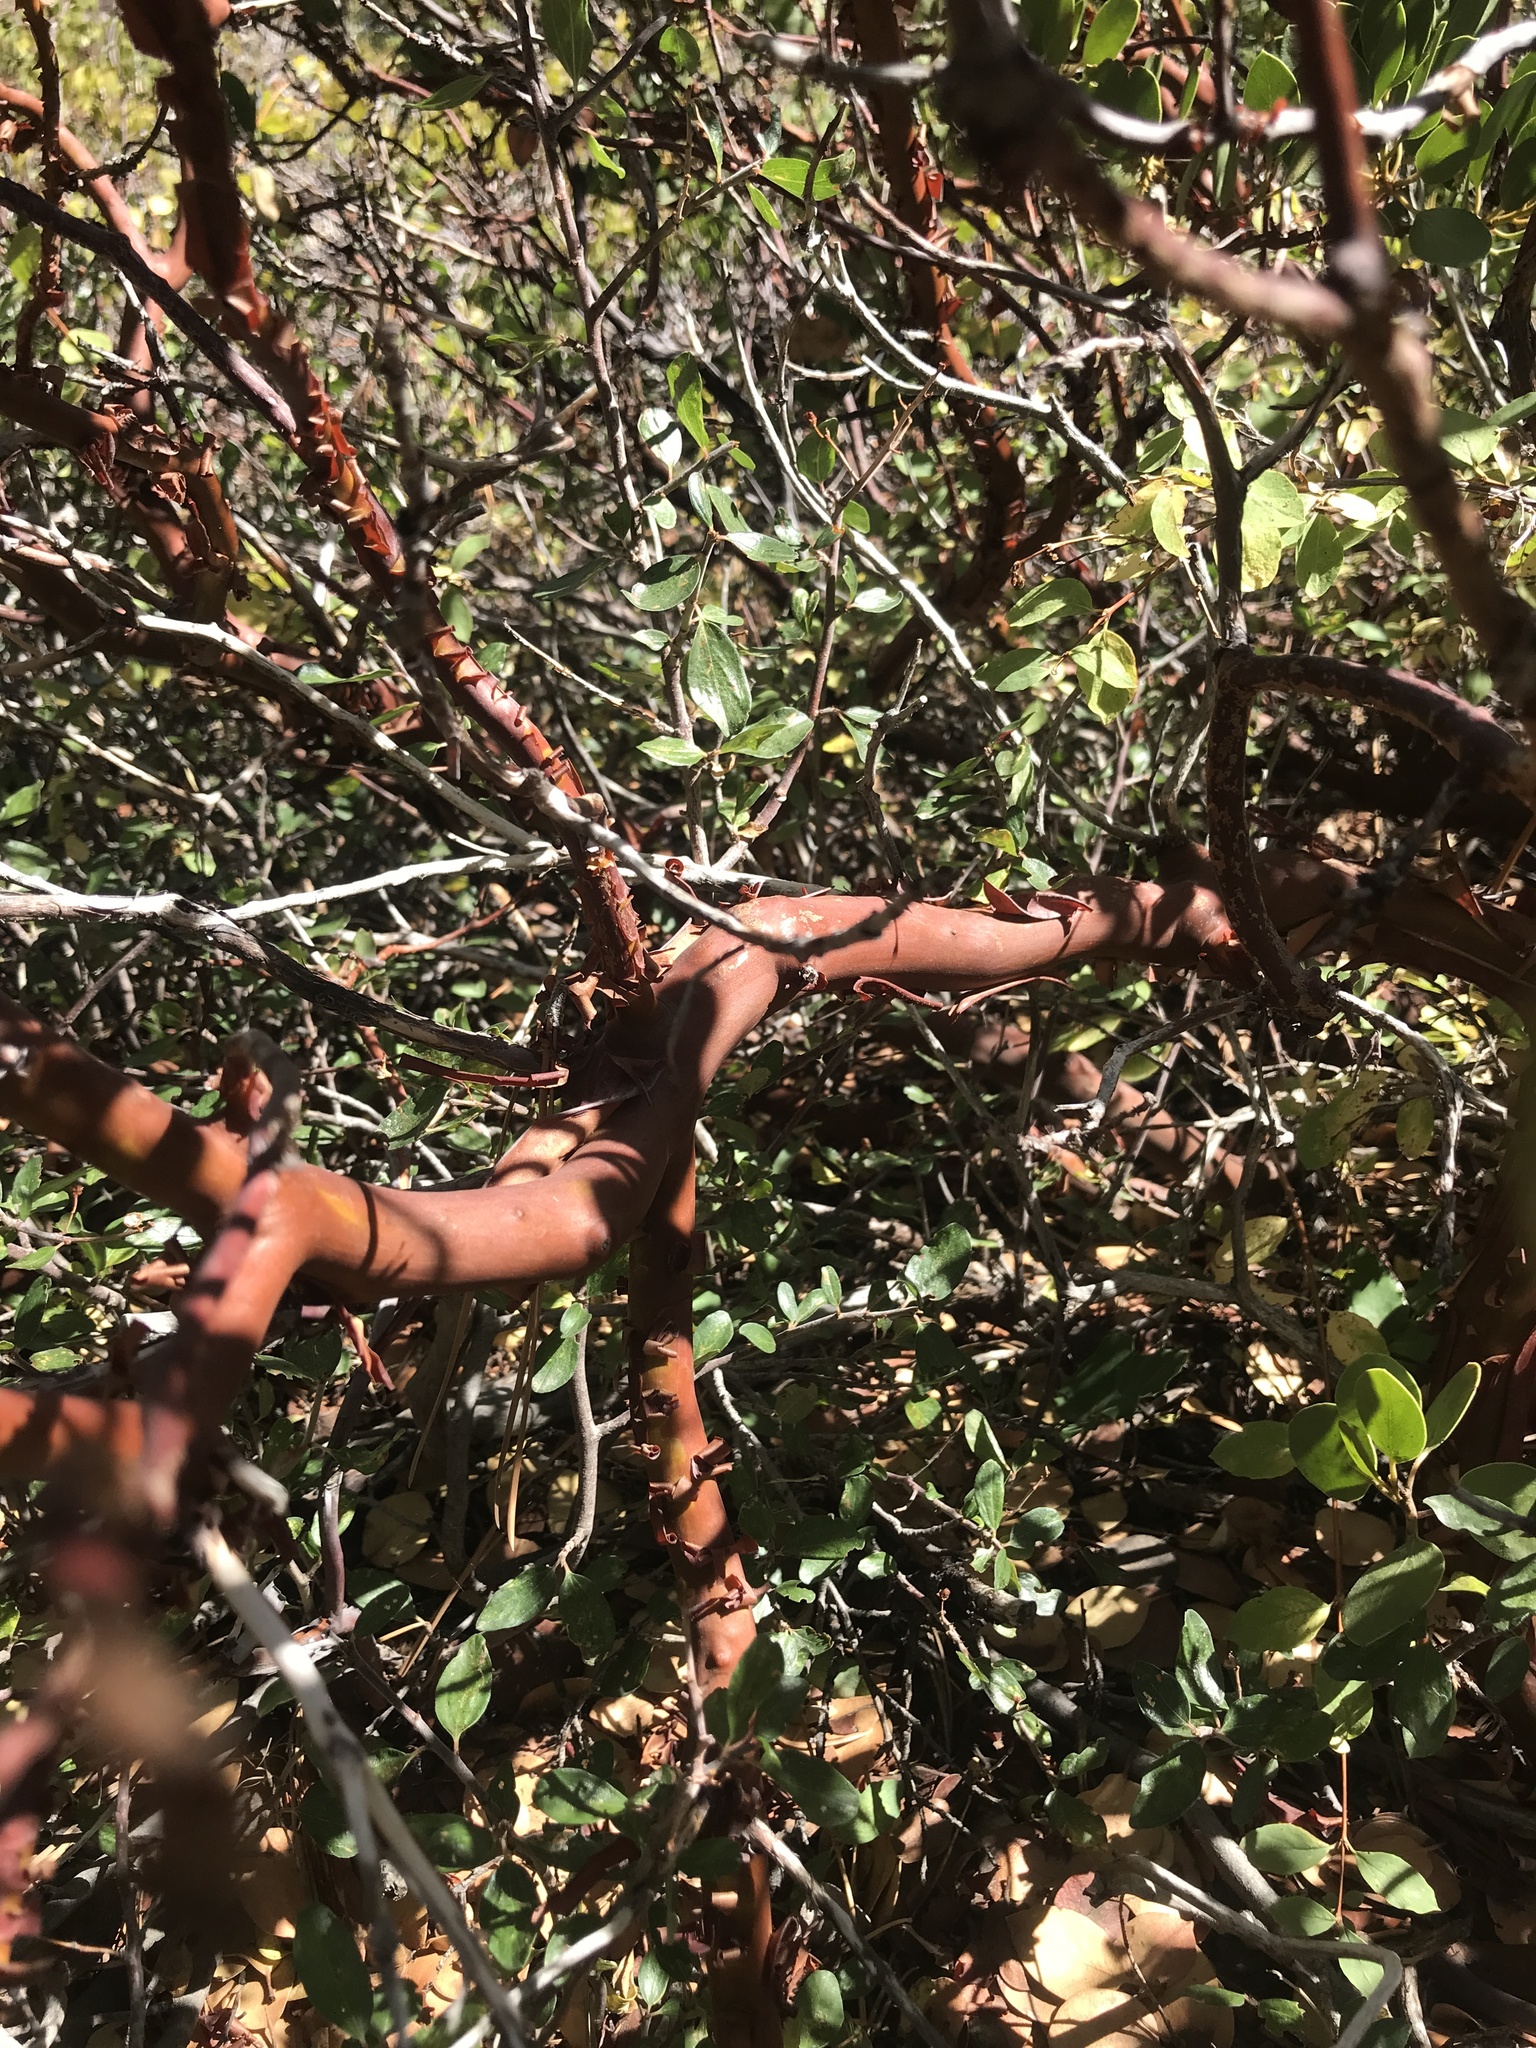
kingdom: Plantae
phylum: Tracheophyta
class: Magnoliopsida
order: Ericales
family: Ericaceae
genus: Arctostaphylos
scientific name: Arctostaphylos patula
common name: Green-leaf manzanita
